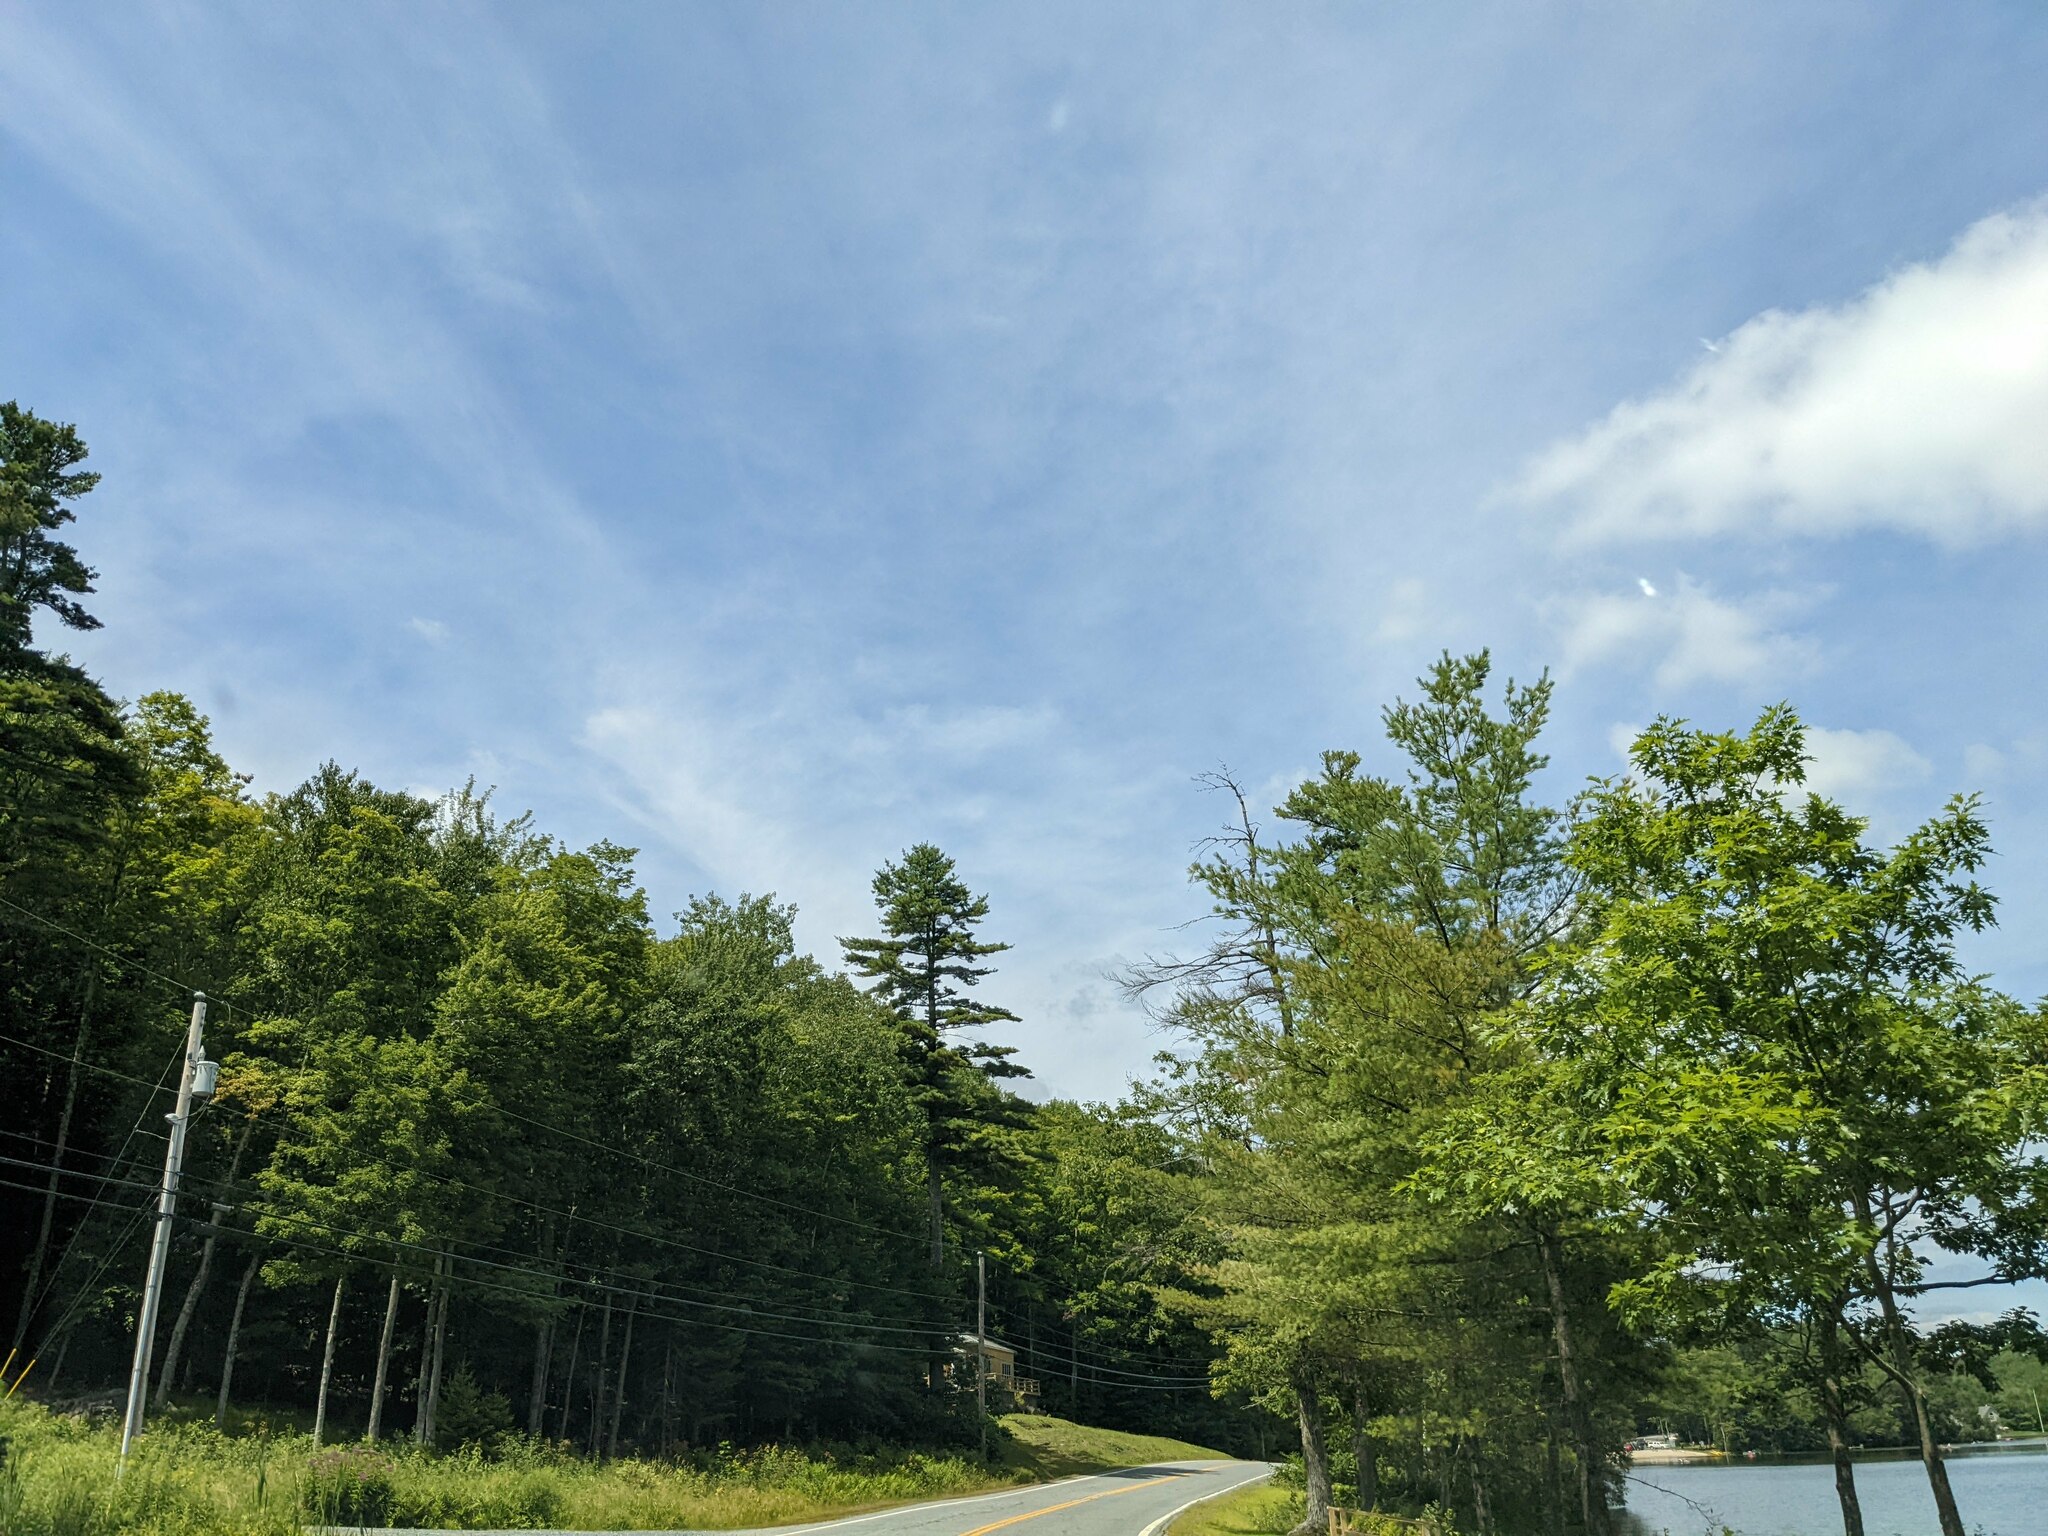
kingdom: Plantae
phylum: Tracheophyta
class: Pinopsida
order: Pinales
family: Pinaceae
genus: Pinus
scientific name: Pinus strobus
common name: Weymouth pine
